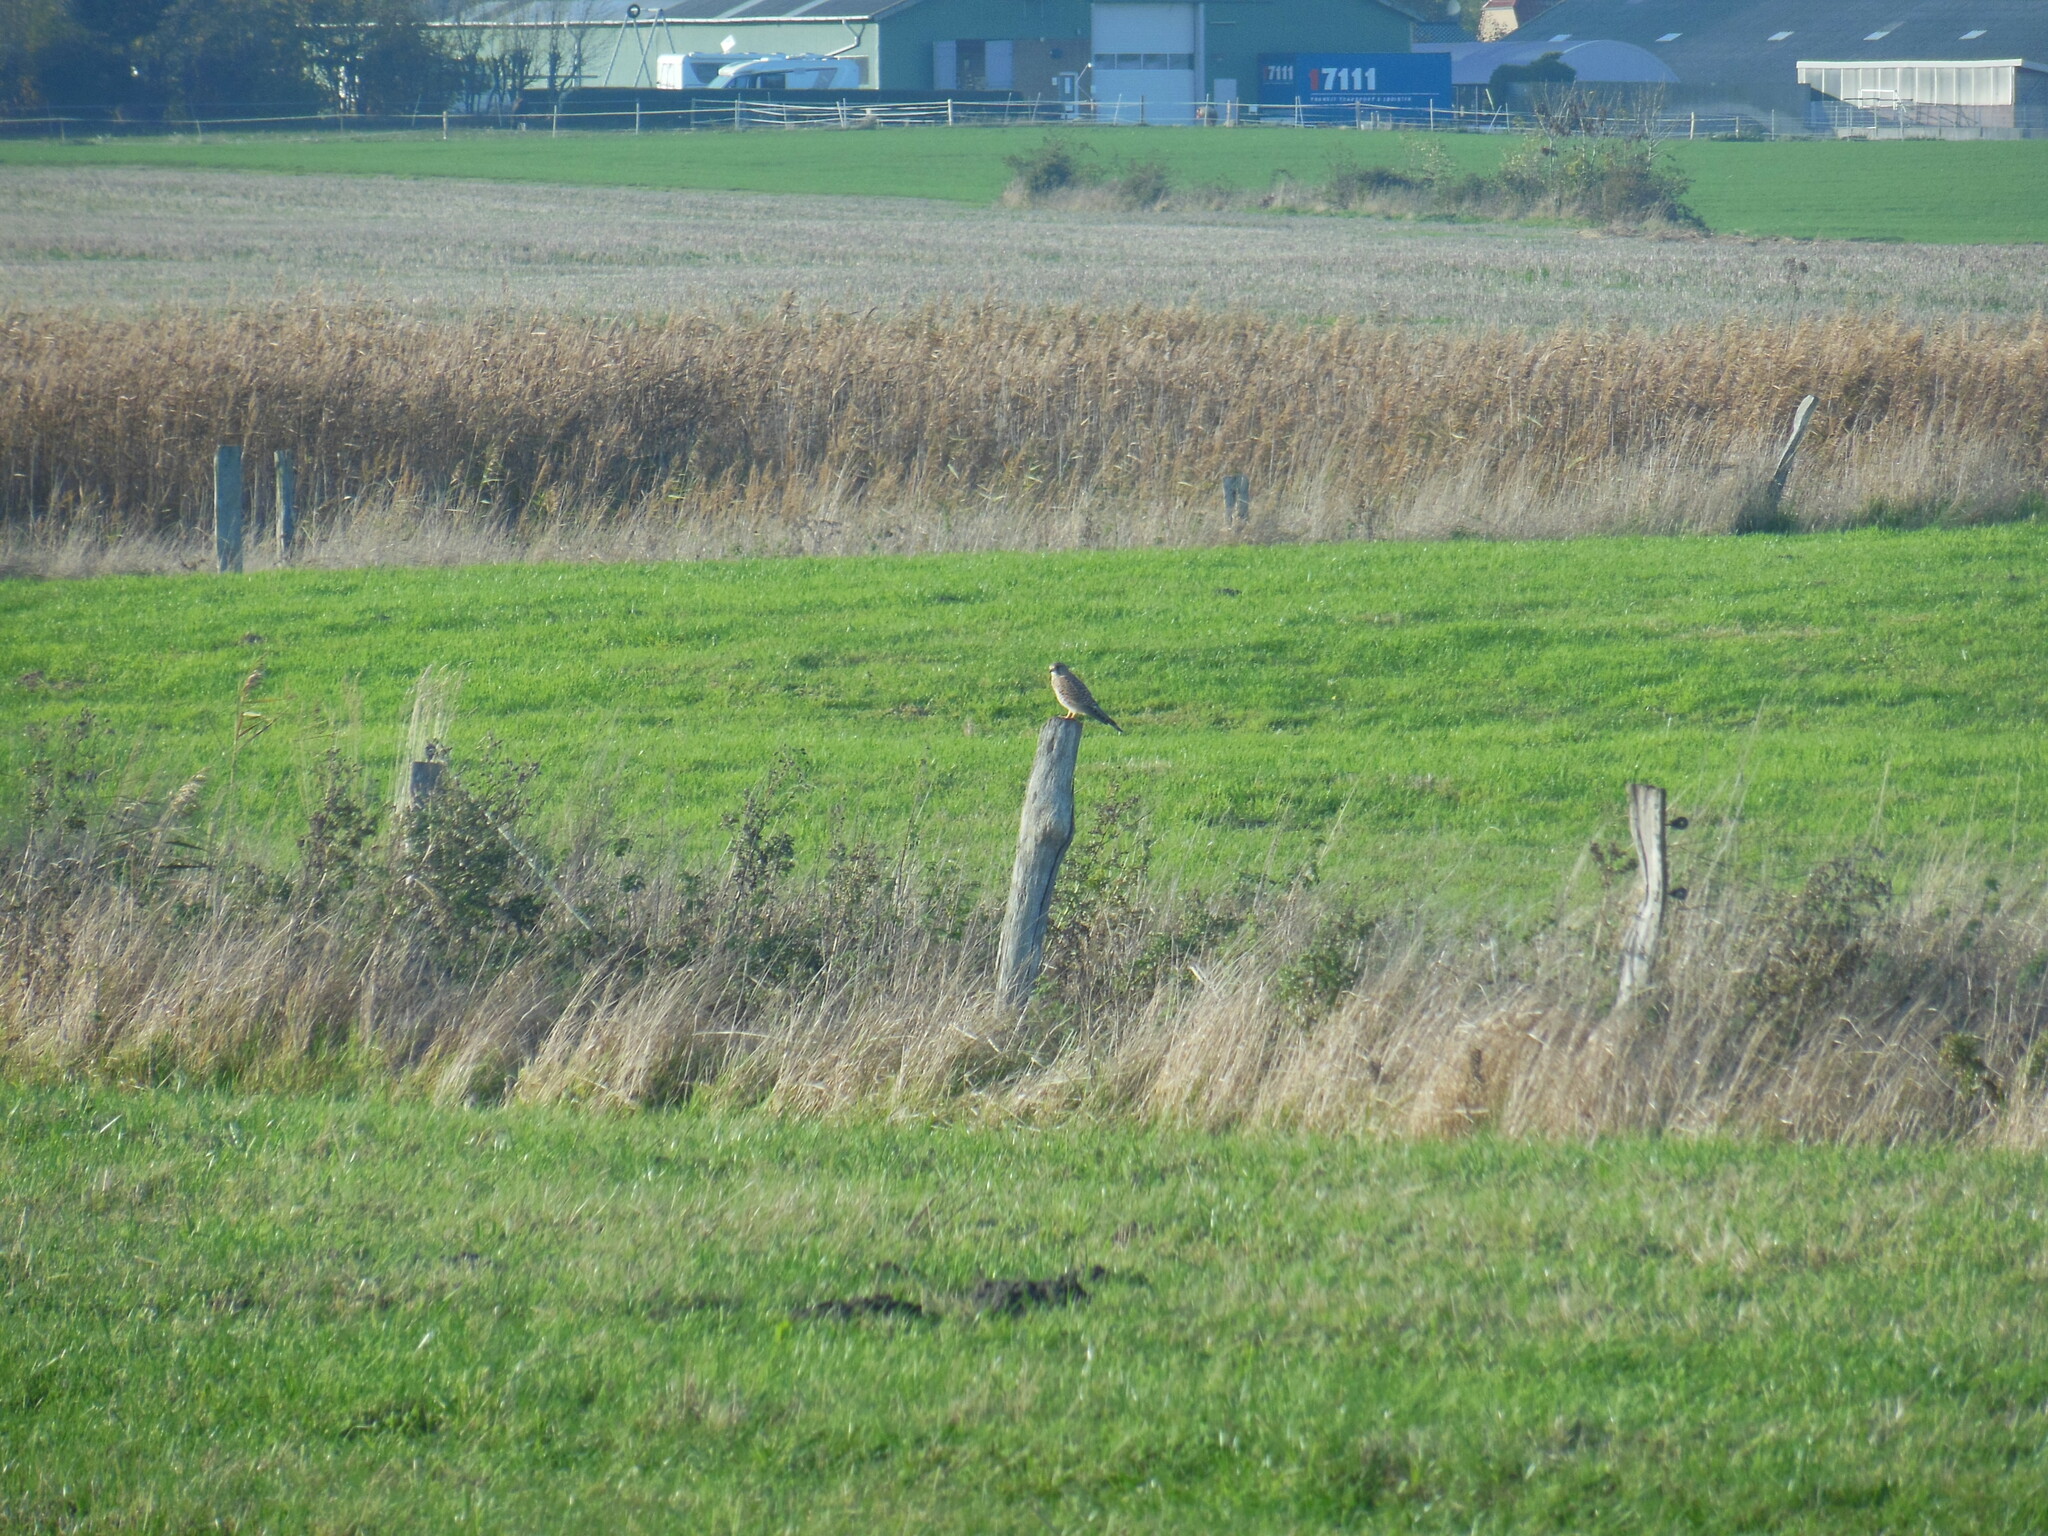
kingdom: Animalia
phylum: Chordata
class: Aves
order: Falconiformes
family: Falconidae
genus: Falco
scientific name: Falco tinnunculus
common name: Common kestrel
